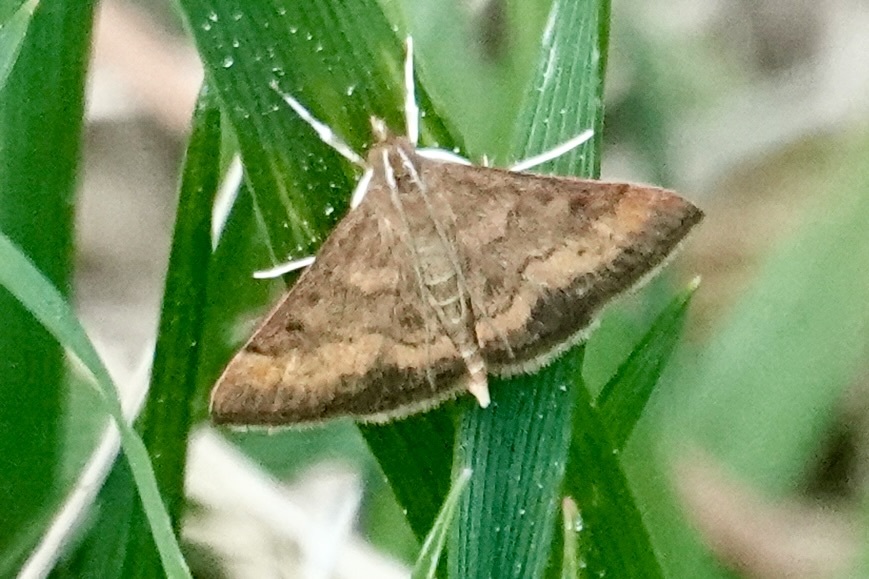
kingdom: Animalia
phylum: Arthropoda
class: Insecta
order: Lepidoptera
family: Crambidae
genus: Pyrausta
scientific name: Pyrausta rubricalis
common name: Variable reddish pyrausta
